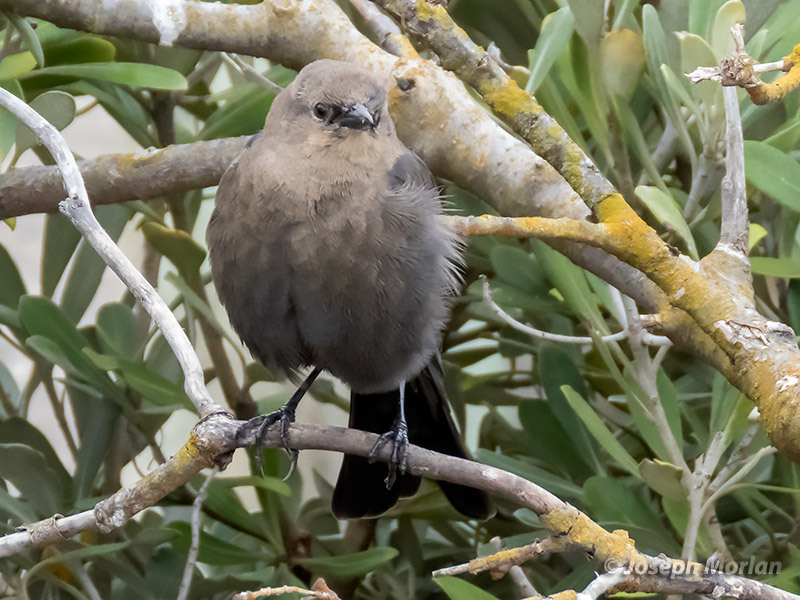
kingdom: Animalia
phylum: Chordata
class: Aves
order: Passeriformes
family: Icteridae
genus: Euphagus
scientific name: Euphagus cyanocephalus
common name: Brewer's blackbird
